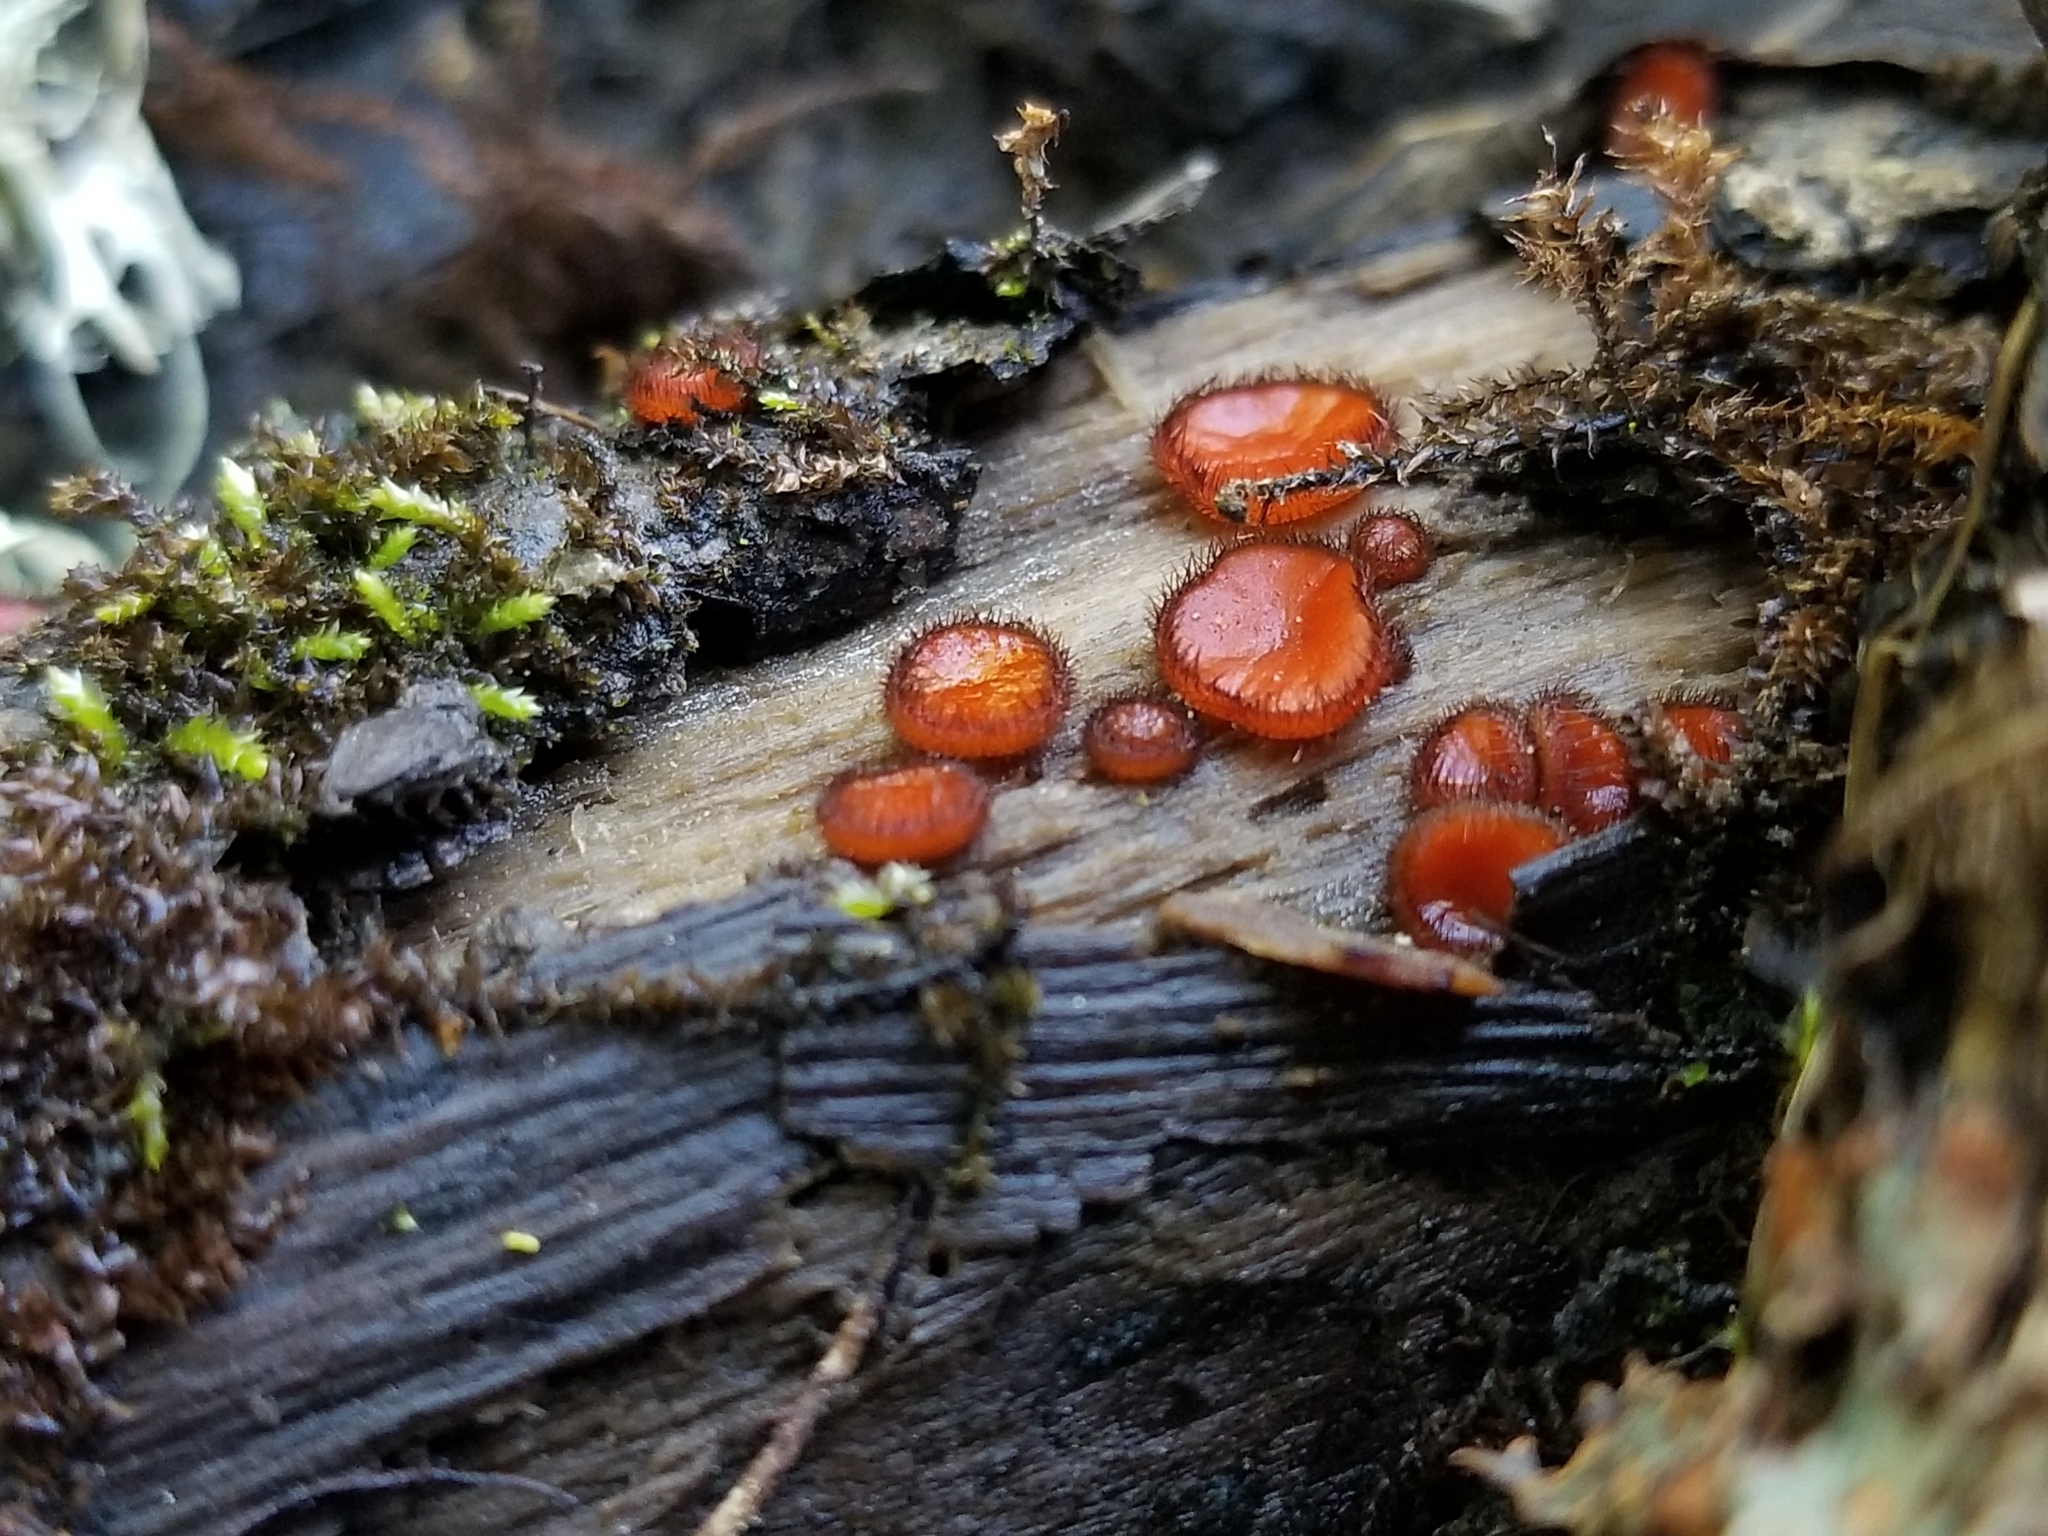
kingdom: Fungi
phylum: Ascomycota
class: Pezizomycetes
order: Pezizales
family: Pyronemataceae
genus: Scutellinia
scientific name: Scutellinia
